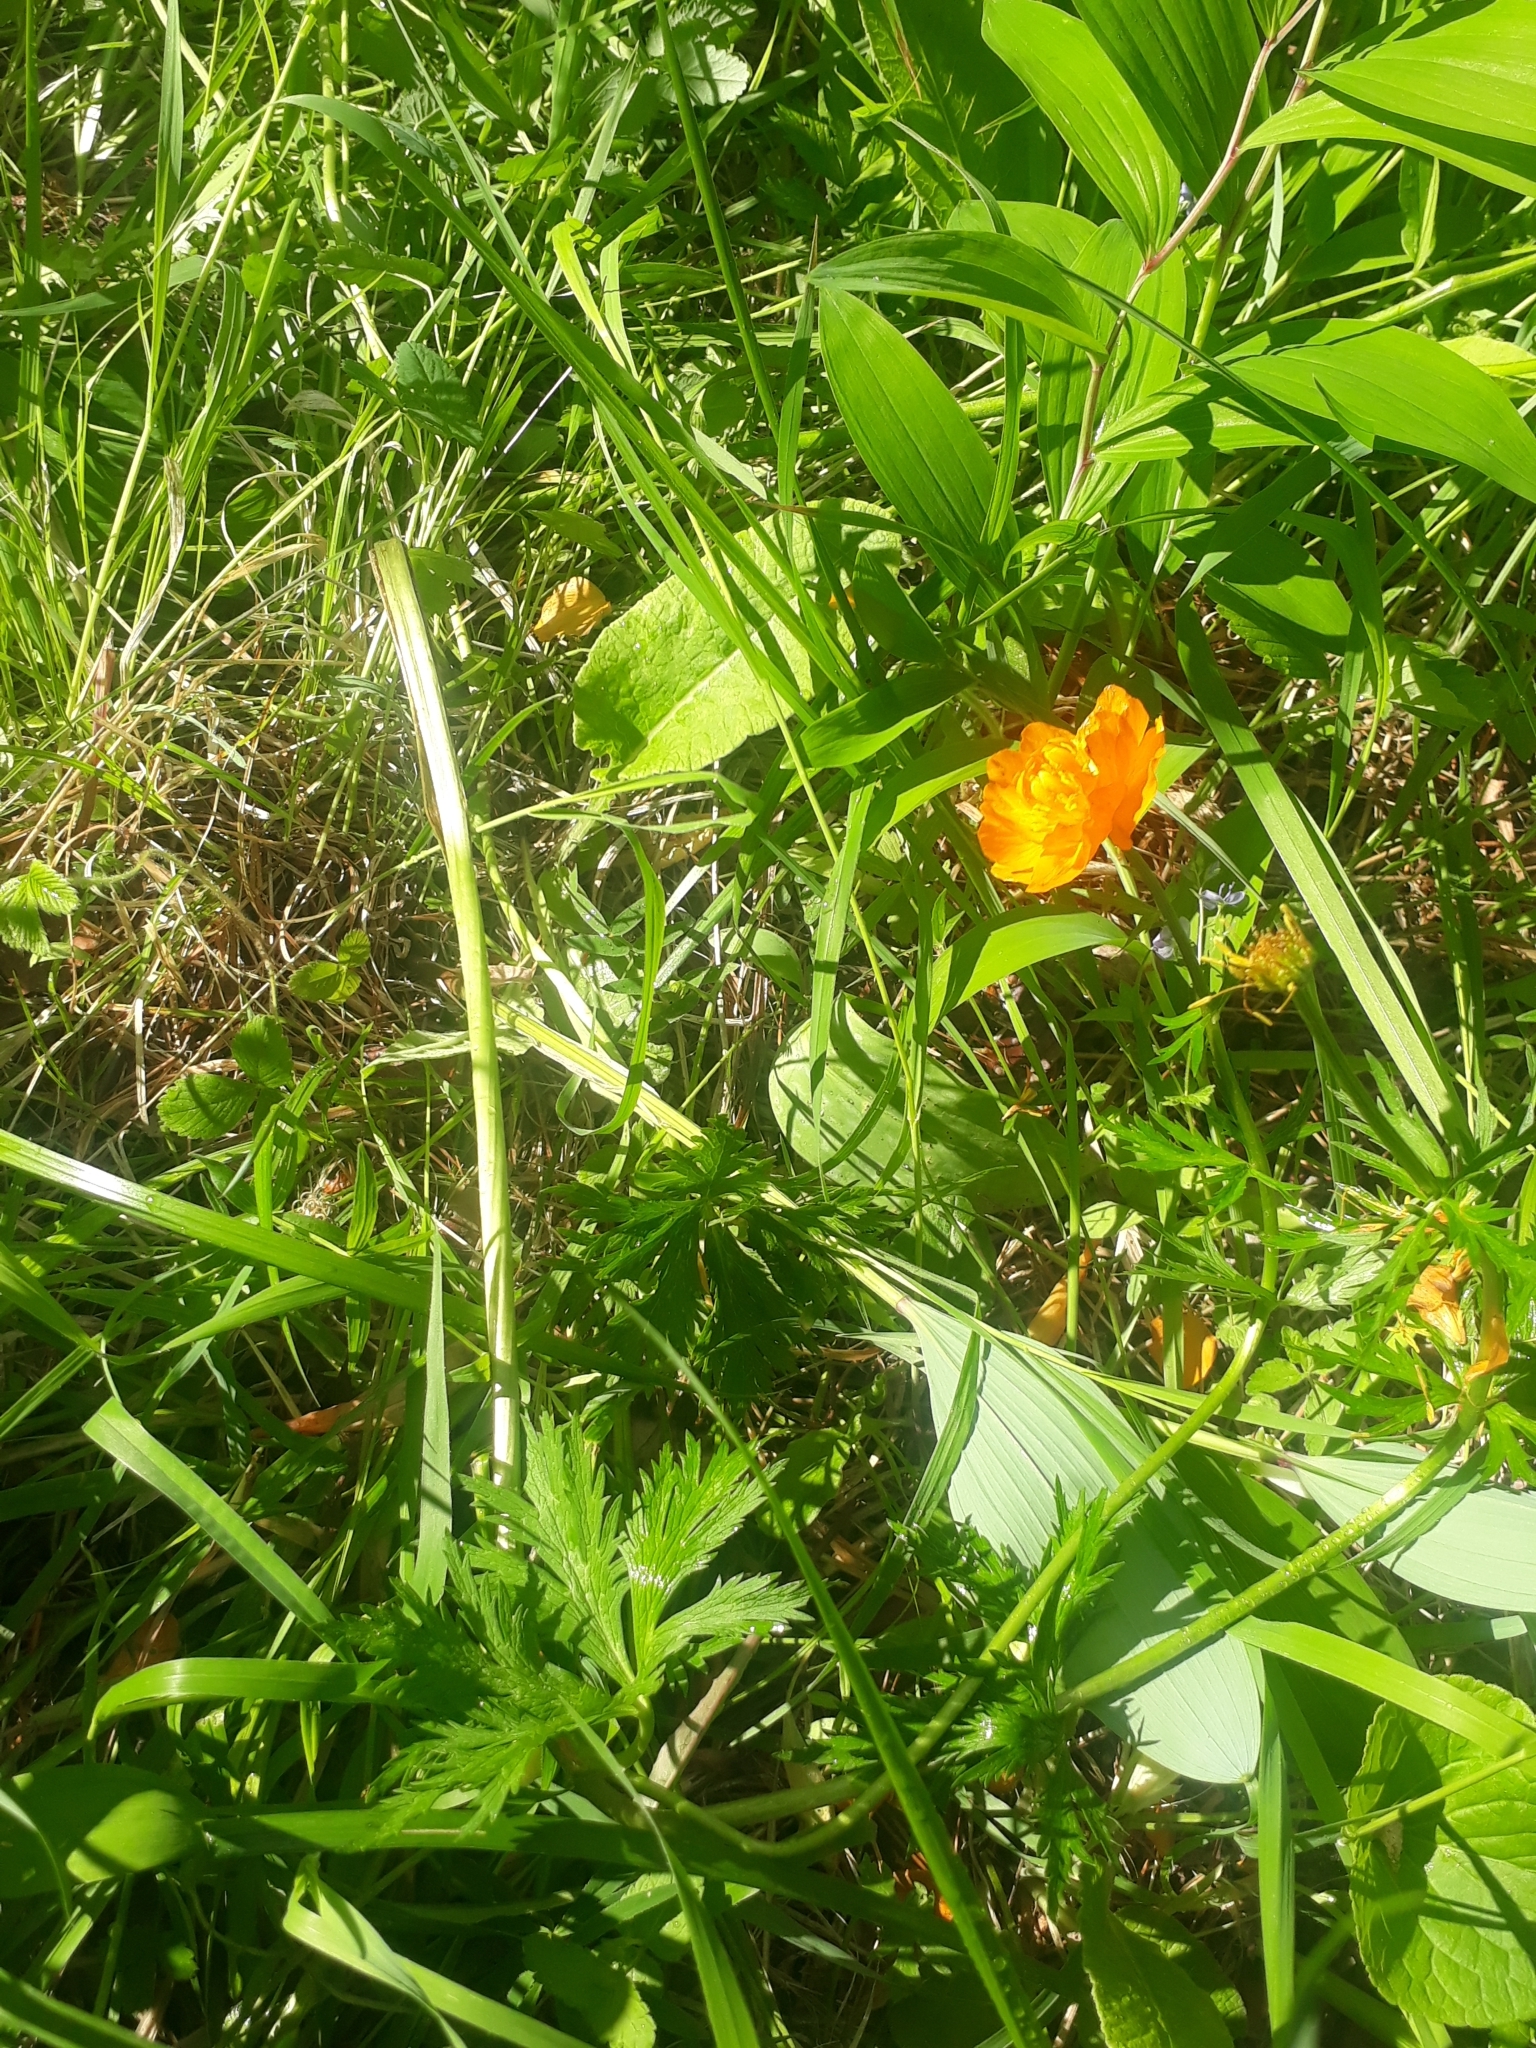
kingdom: Plantae
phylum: Tracheophyta
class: Magnoliopsida
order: Ranunculales
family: Ranunculaceae
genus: Trollius
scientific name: Trollius asiaticus
